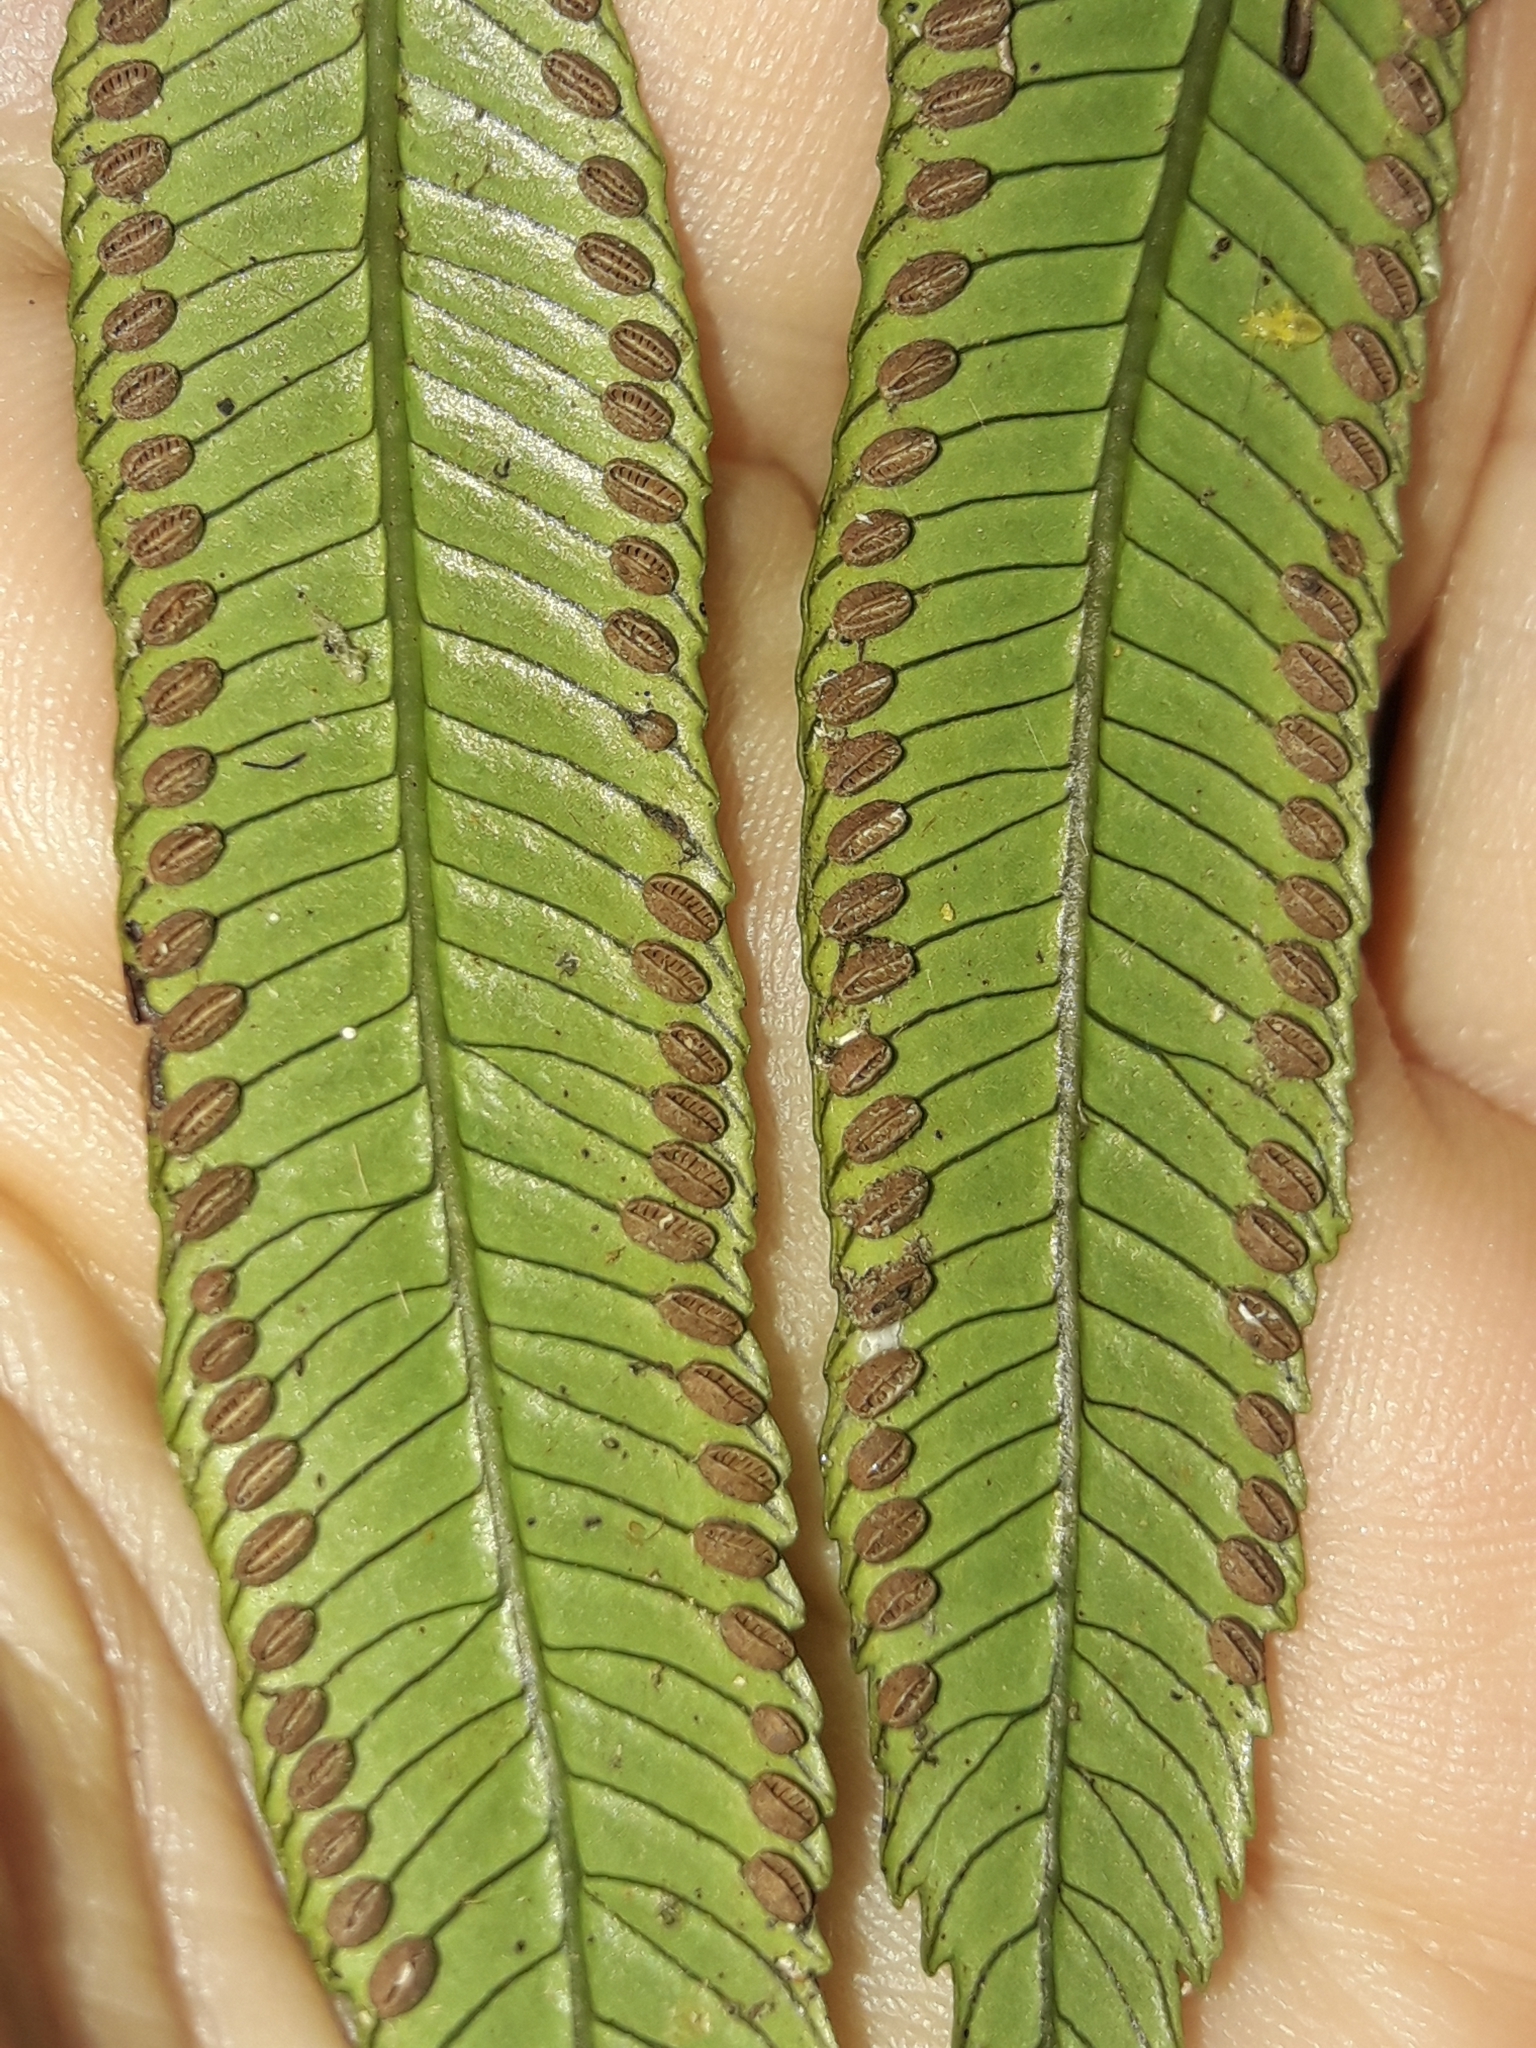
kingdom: Plantae
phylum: Tracheophyta
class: Polypodiopsida
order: Marattiales
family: Marattiaceae
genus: Ptisana
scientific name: Ptisana attenuata
